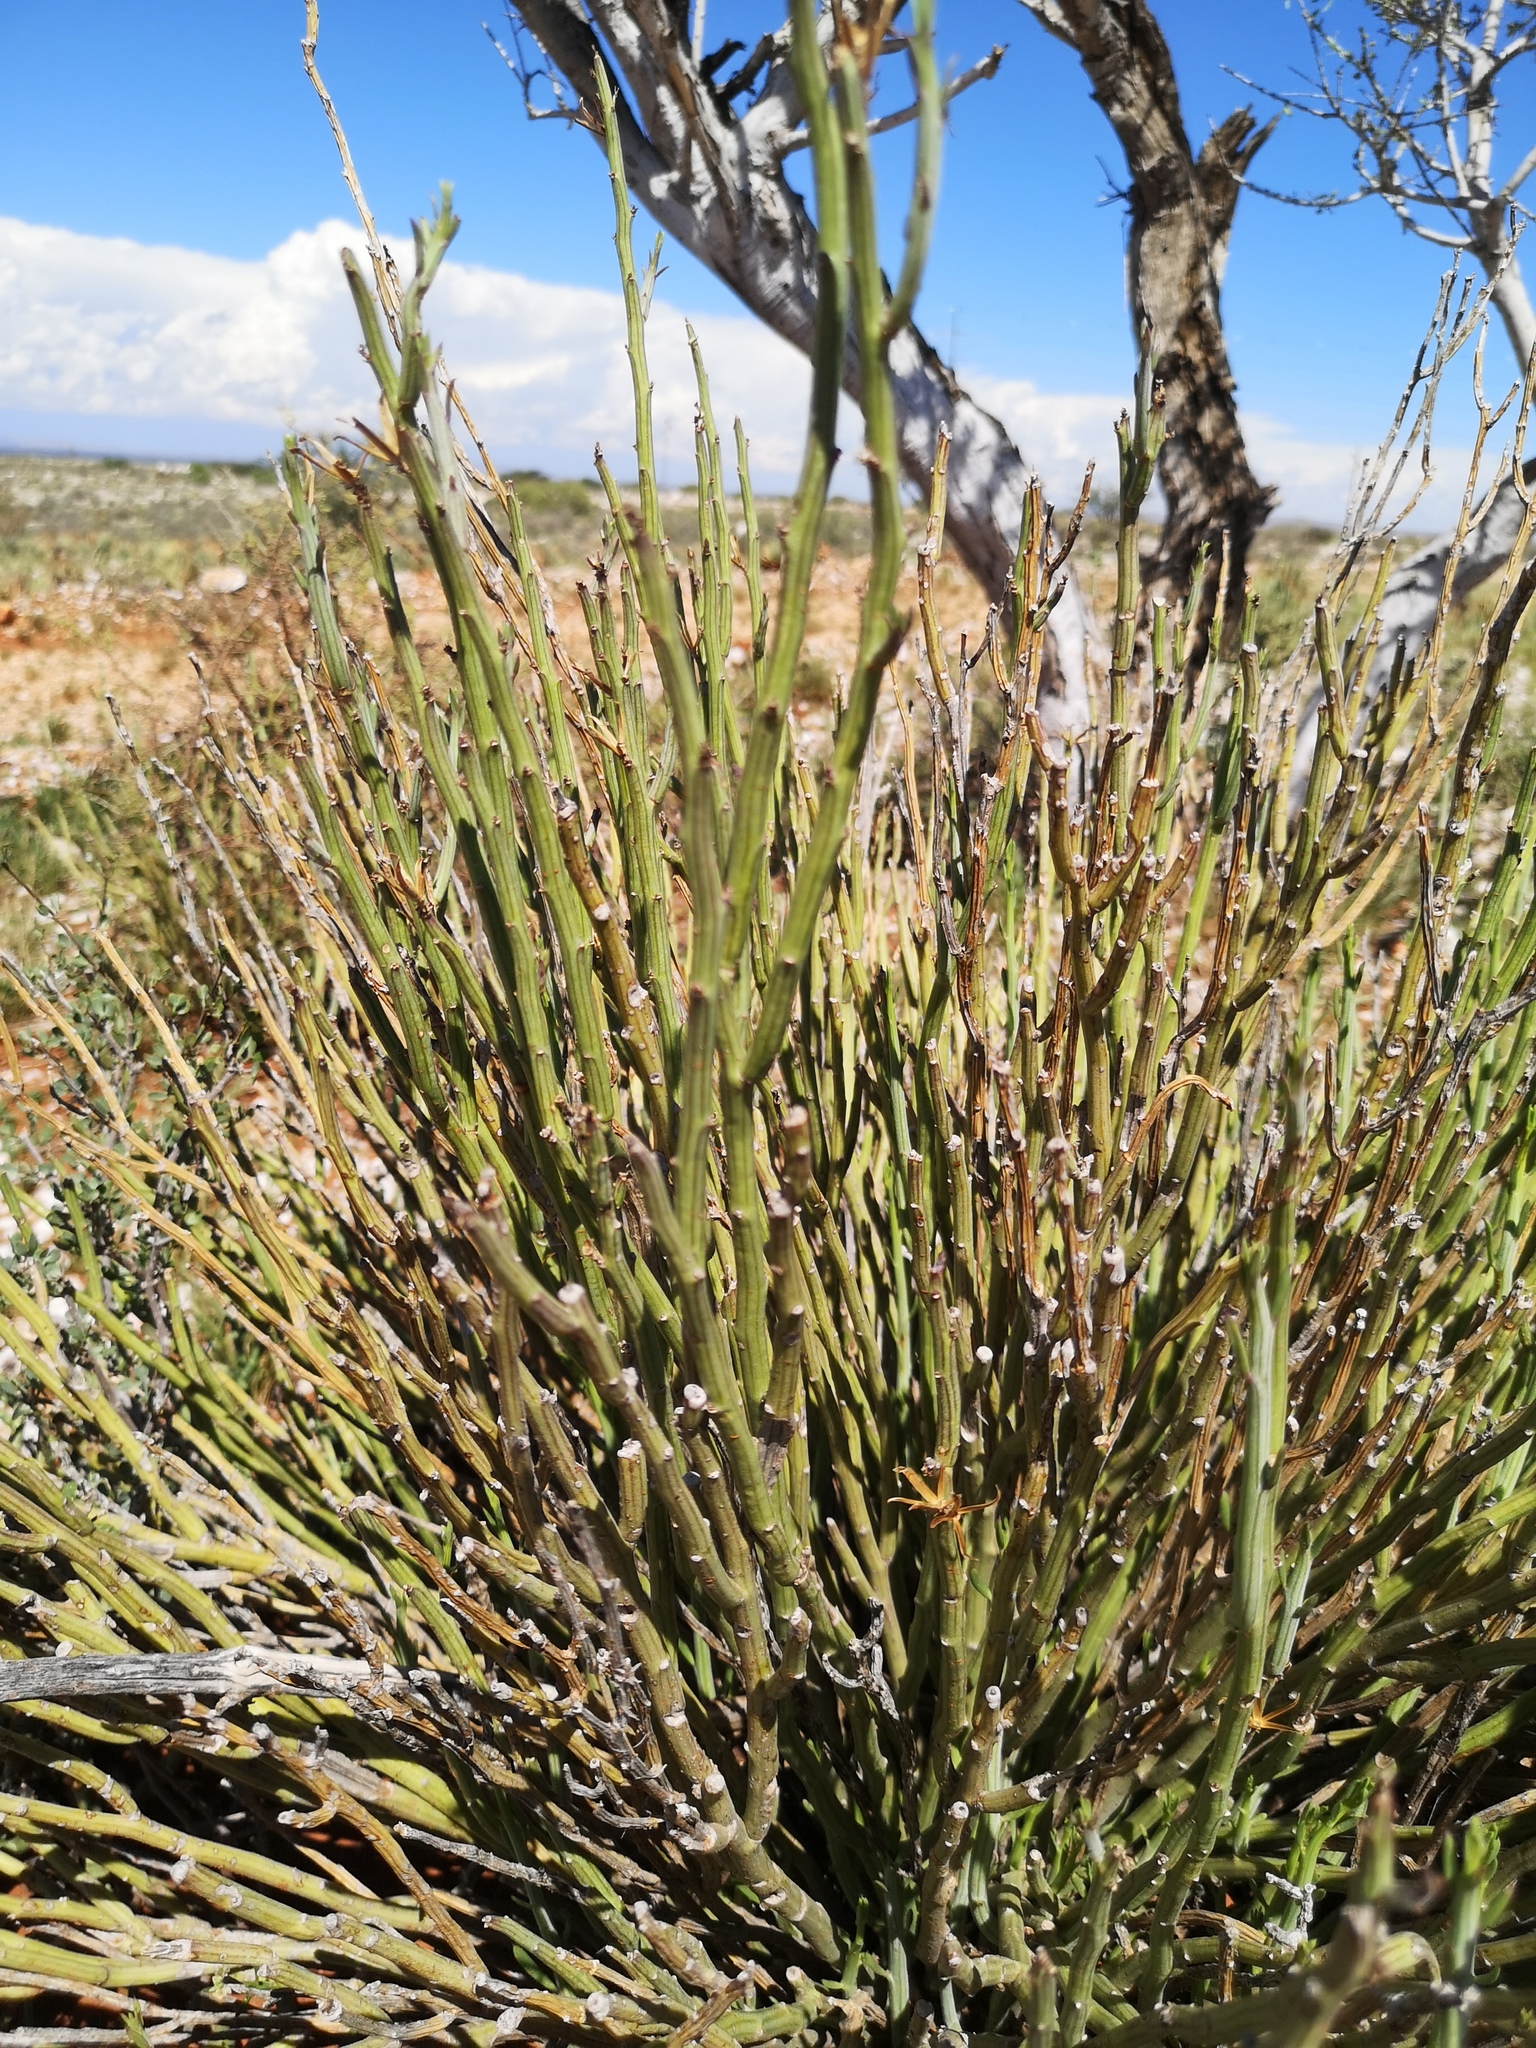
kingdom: Plantae
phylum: Tracheophyta
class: Magnoliopsida
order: Asterales
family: Asteraceae
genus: Curio
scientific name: Curio avasimontanus
